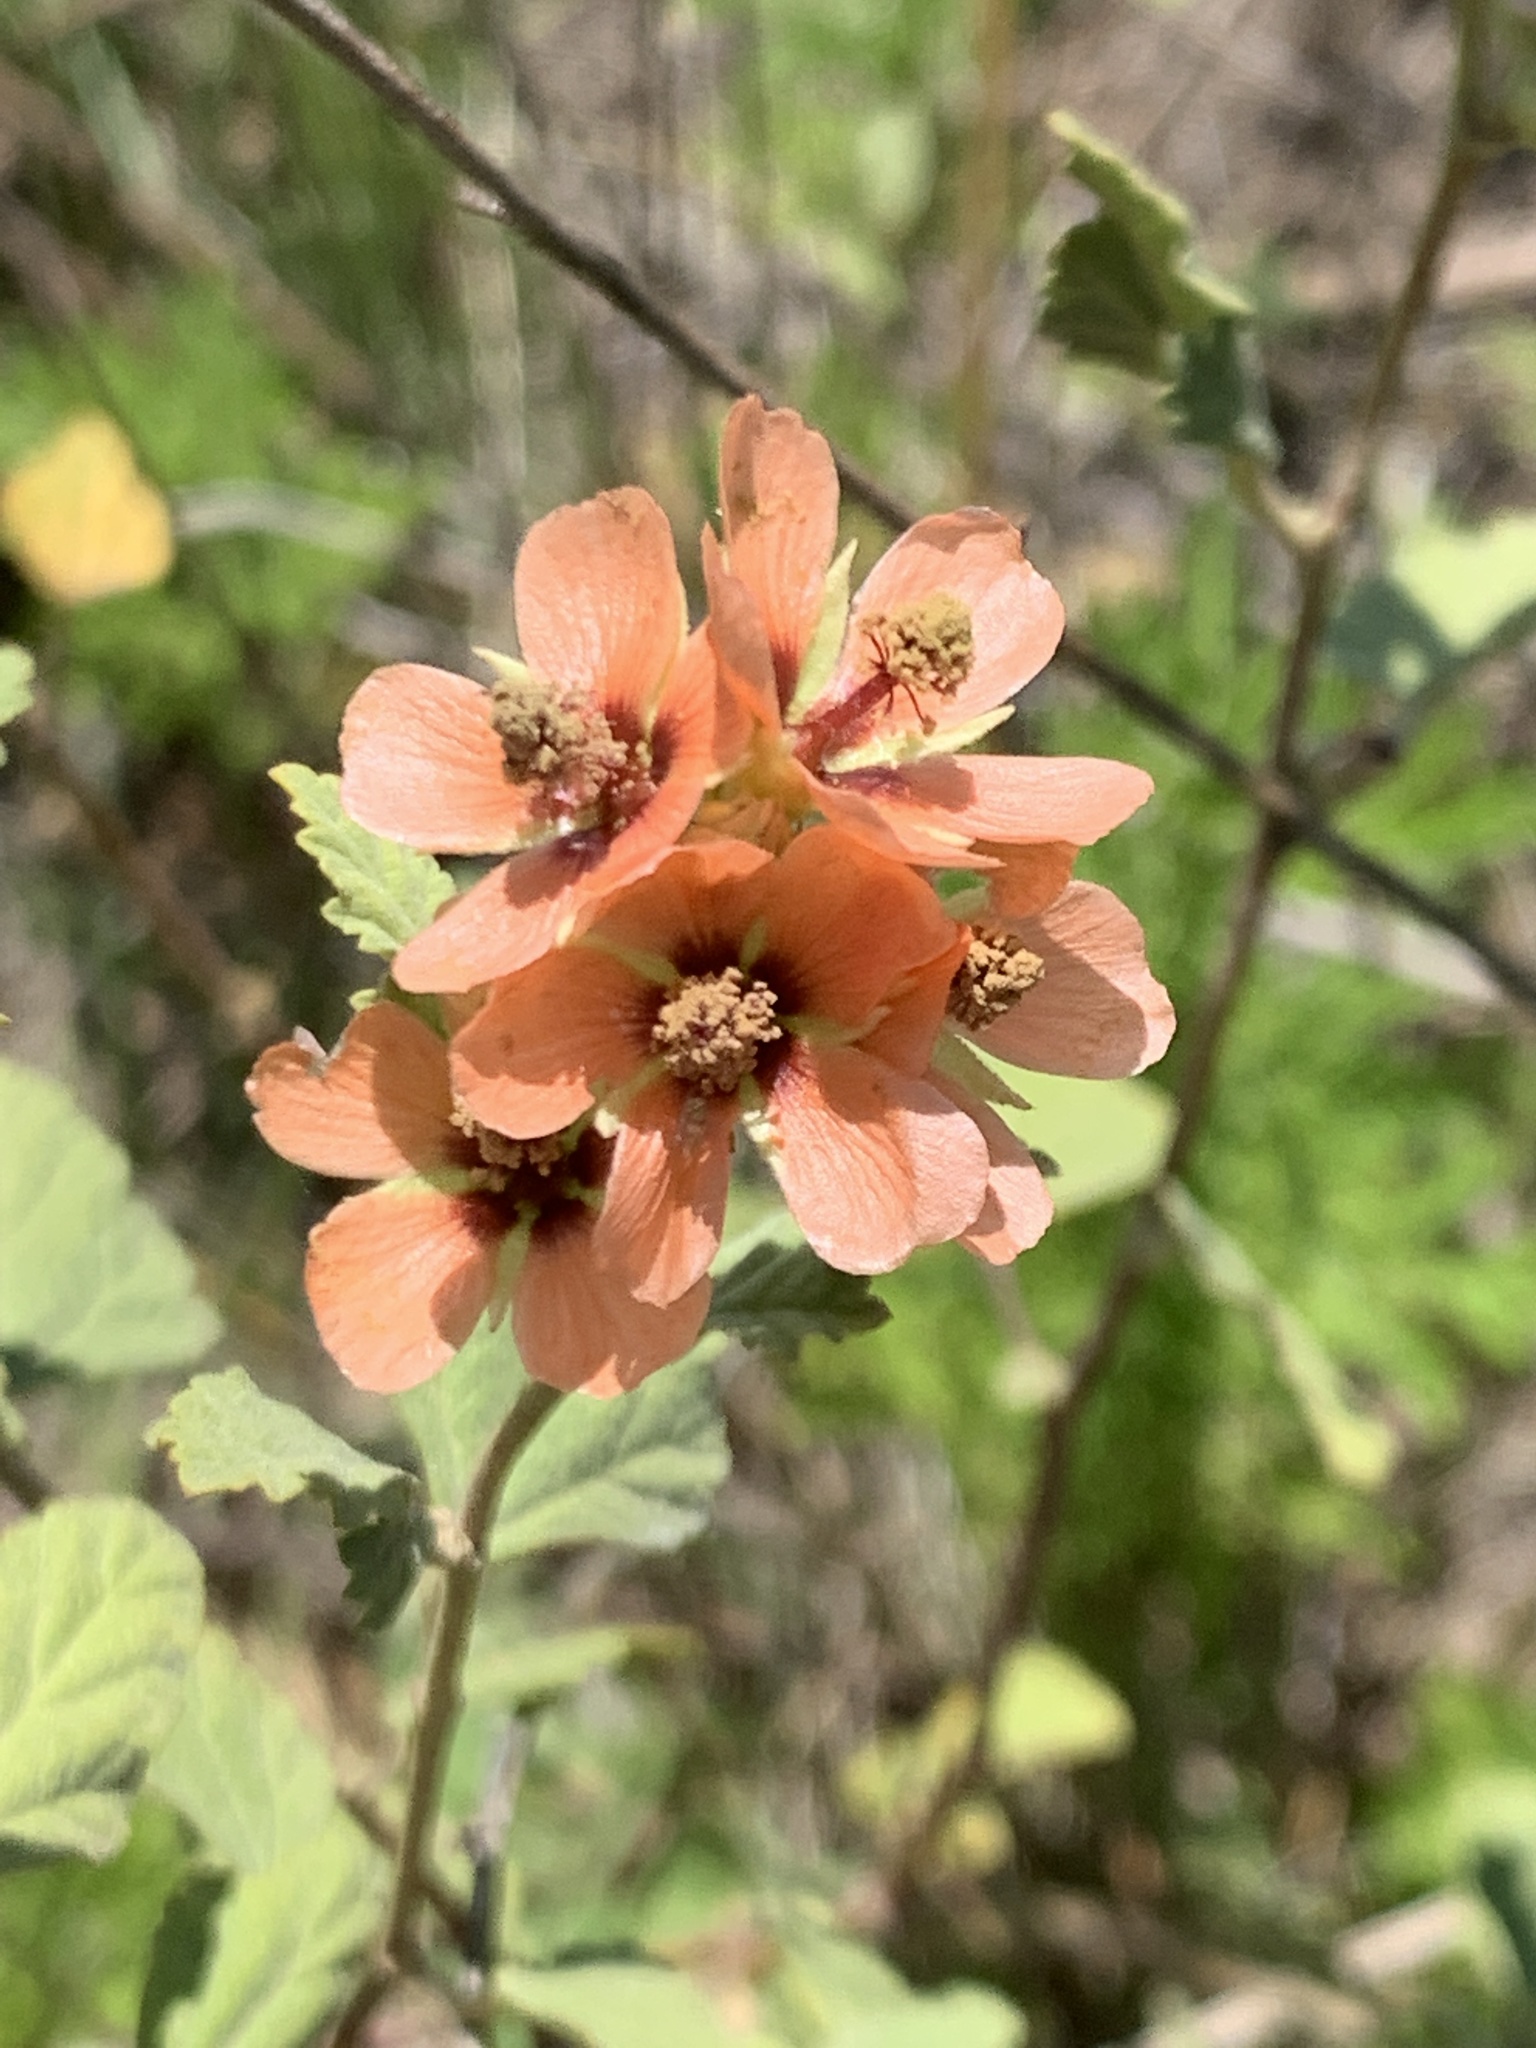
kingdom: Plantae
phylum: Tracheophyta
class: Magnoliopsida
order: Malvales
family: Malvaceae
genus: Sphaeralcea
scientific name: Sphaeralcea bonariensis
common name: Latin globemallow
